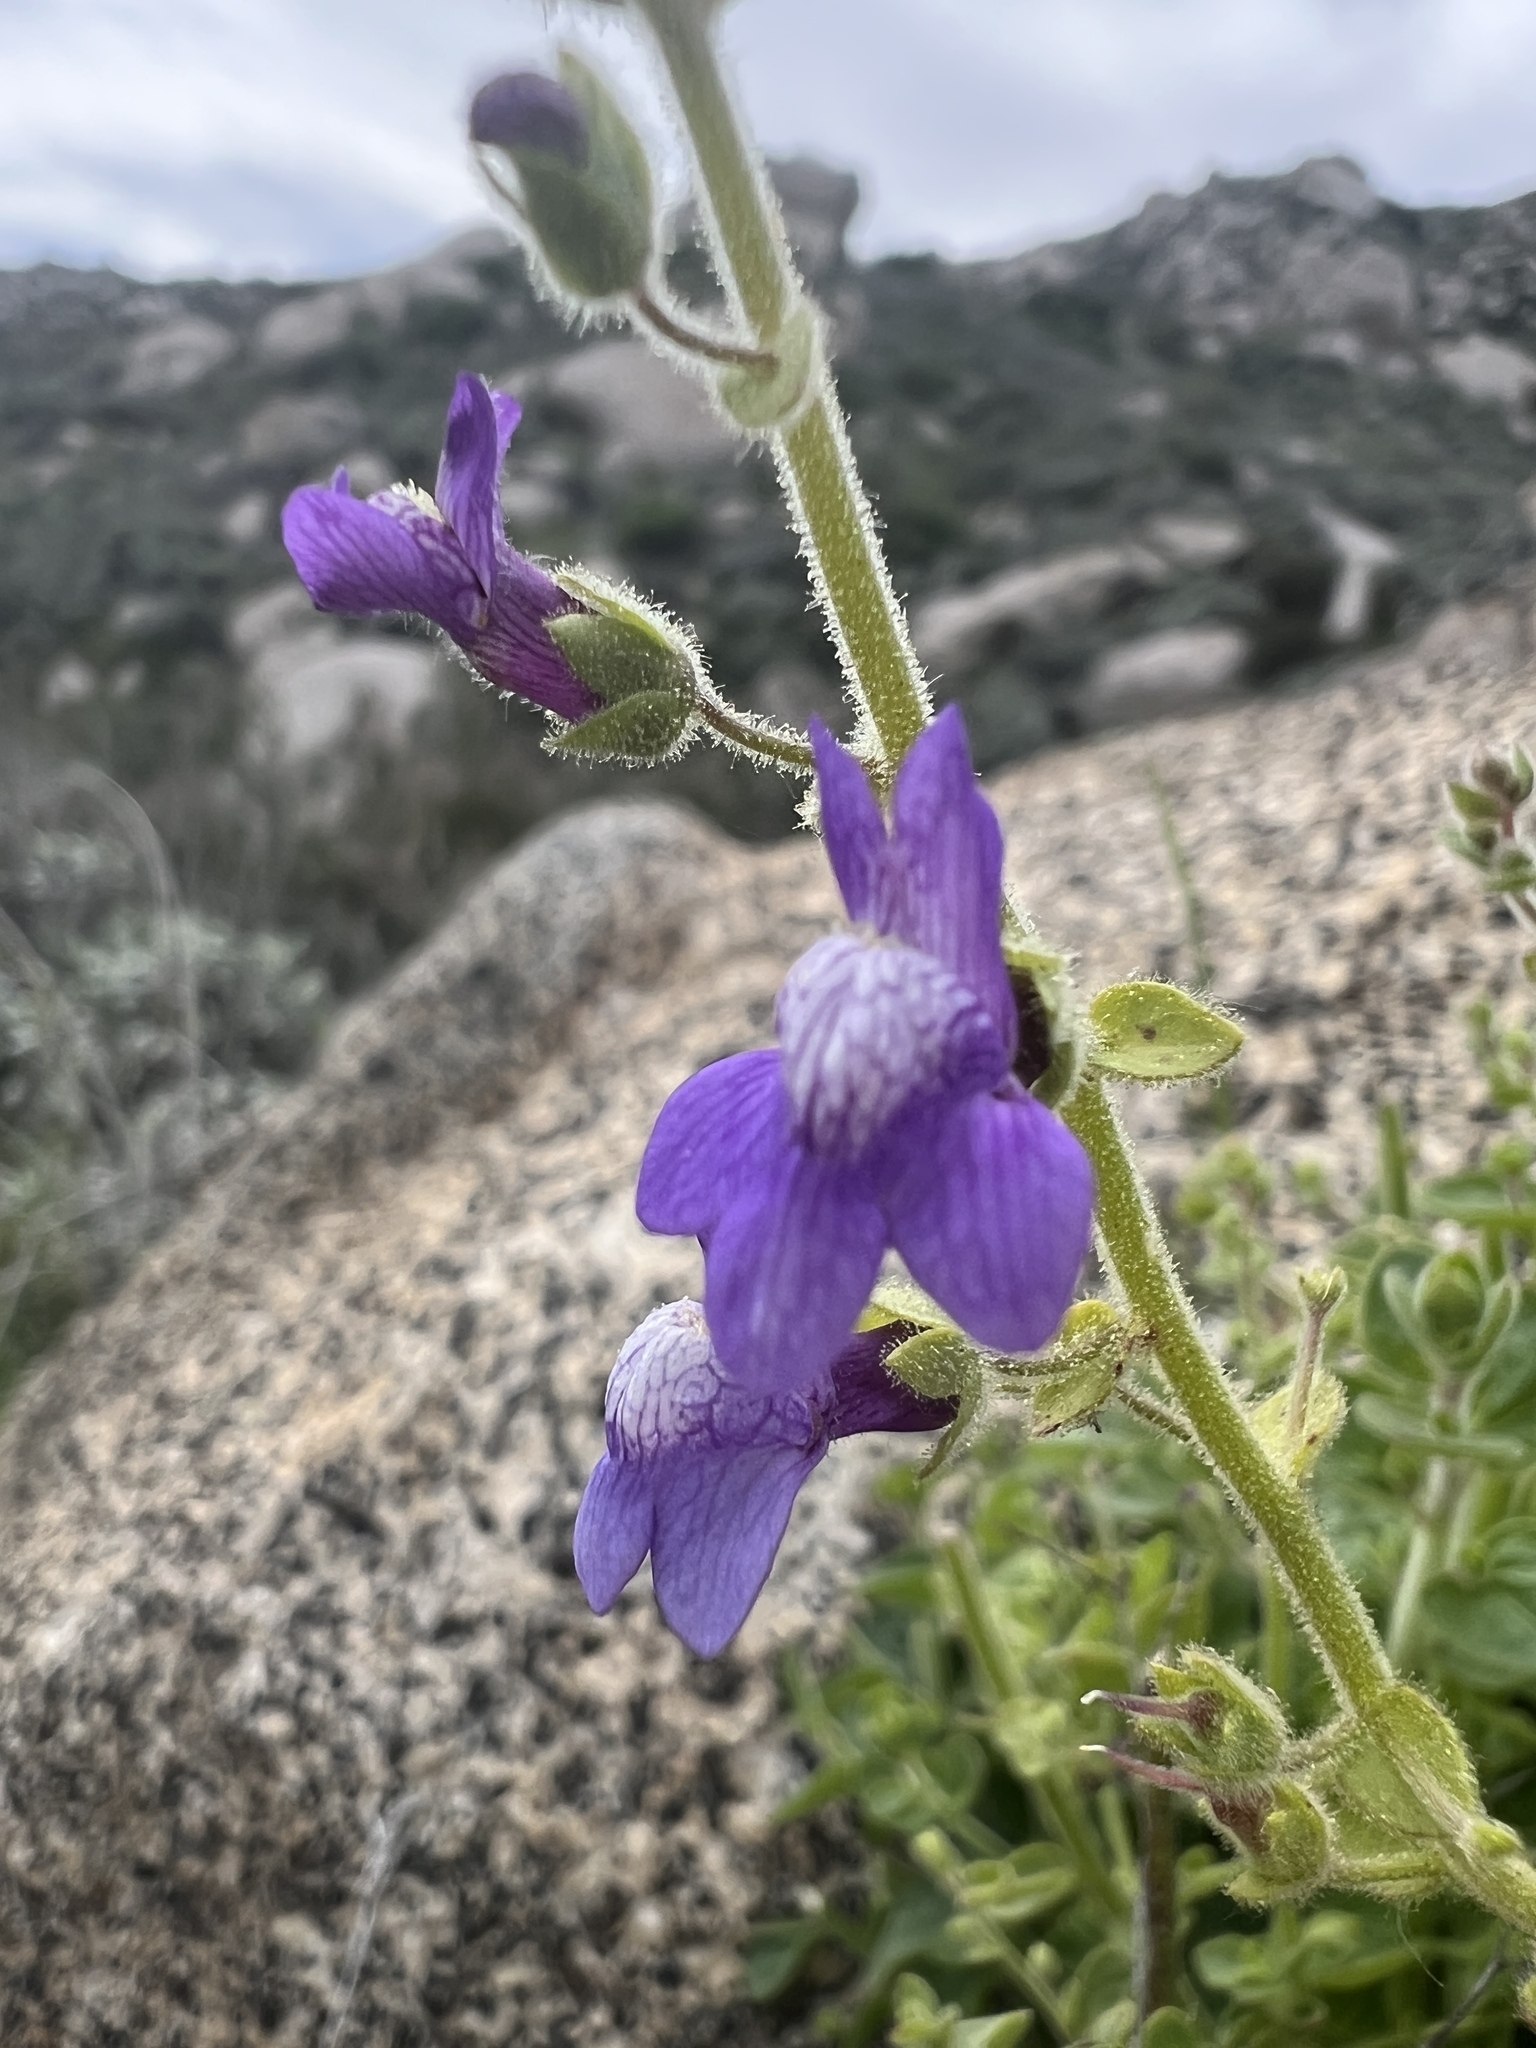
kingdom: Plantae
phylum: Tracheophyta
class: Magnoliopsida
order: Lamiales
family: Plantaginaceae
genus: Sairocarpus
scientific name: Sairocarpus nuttallianus
